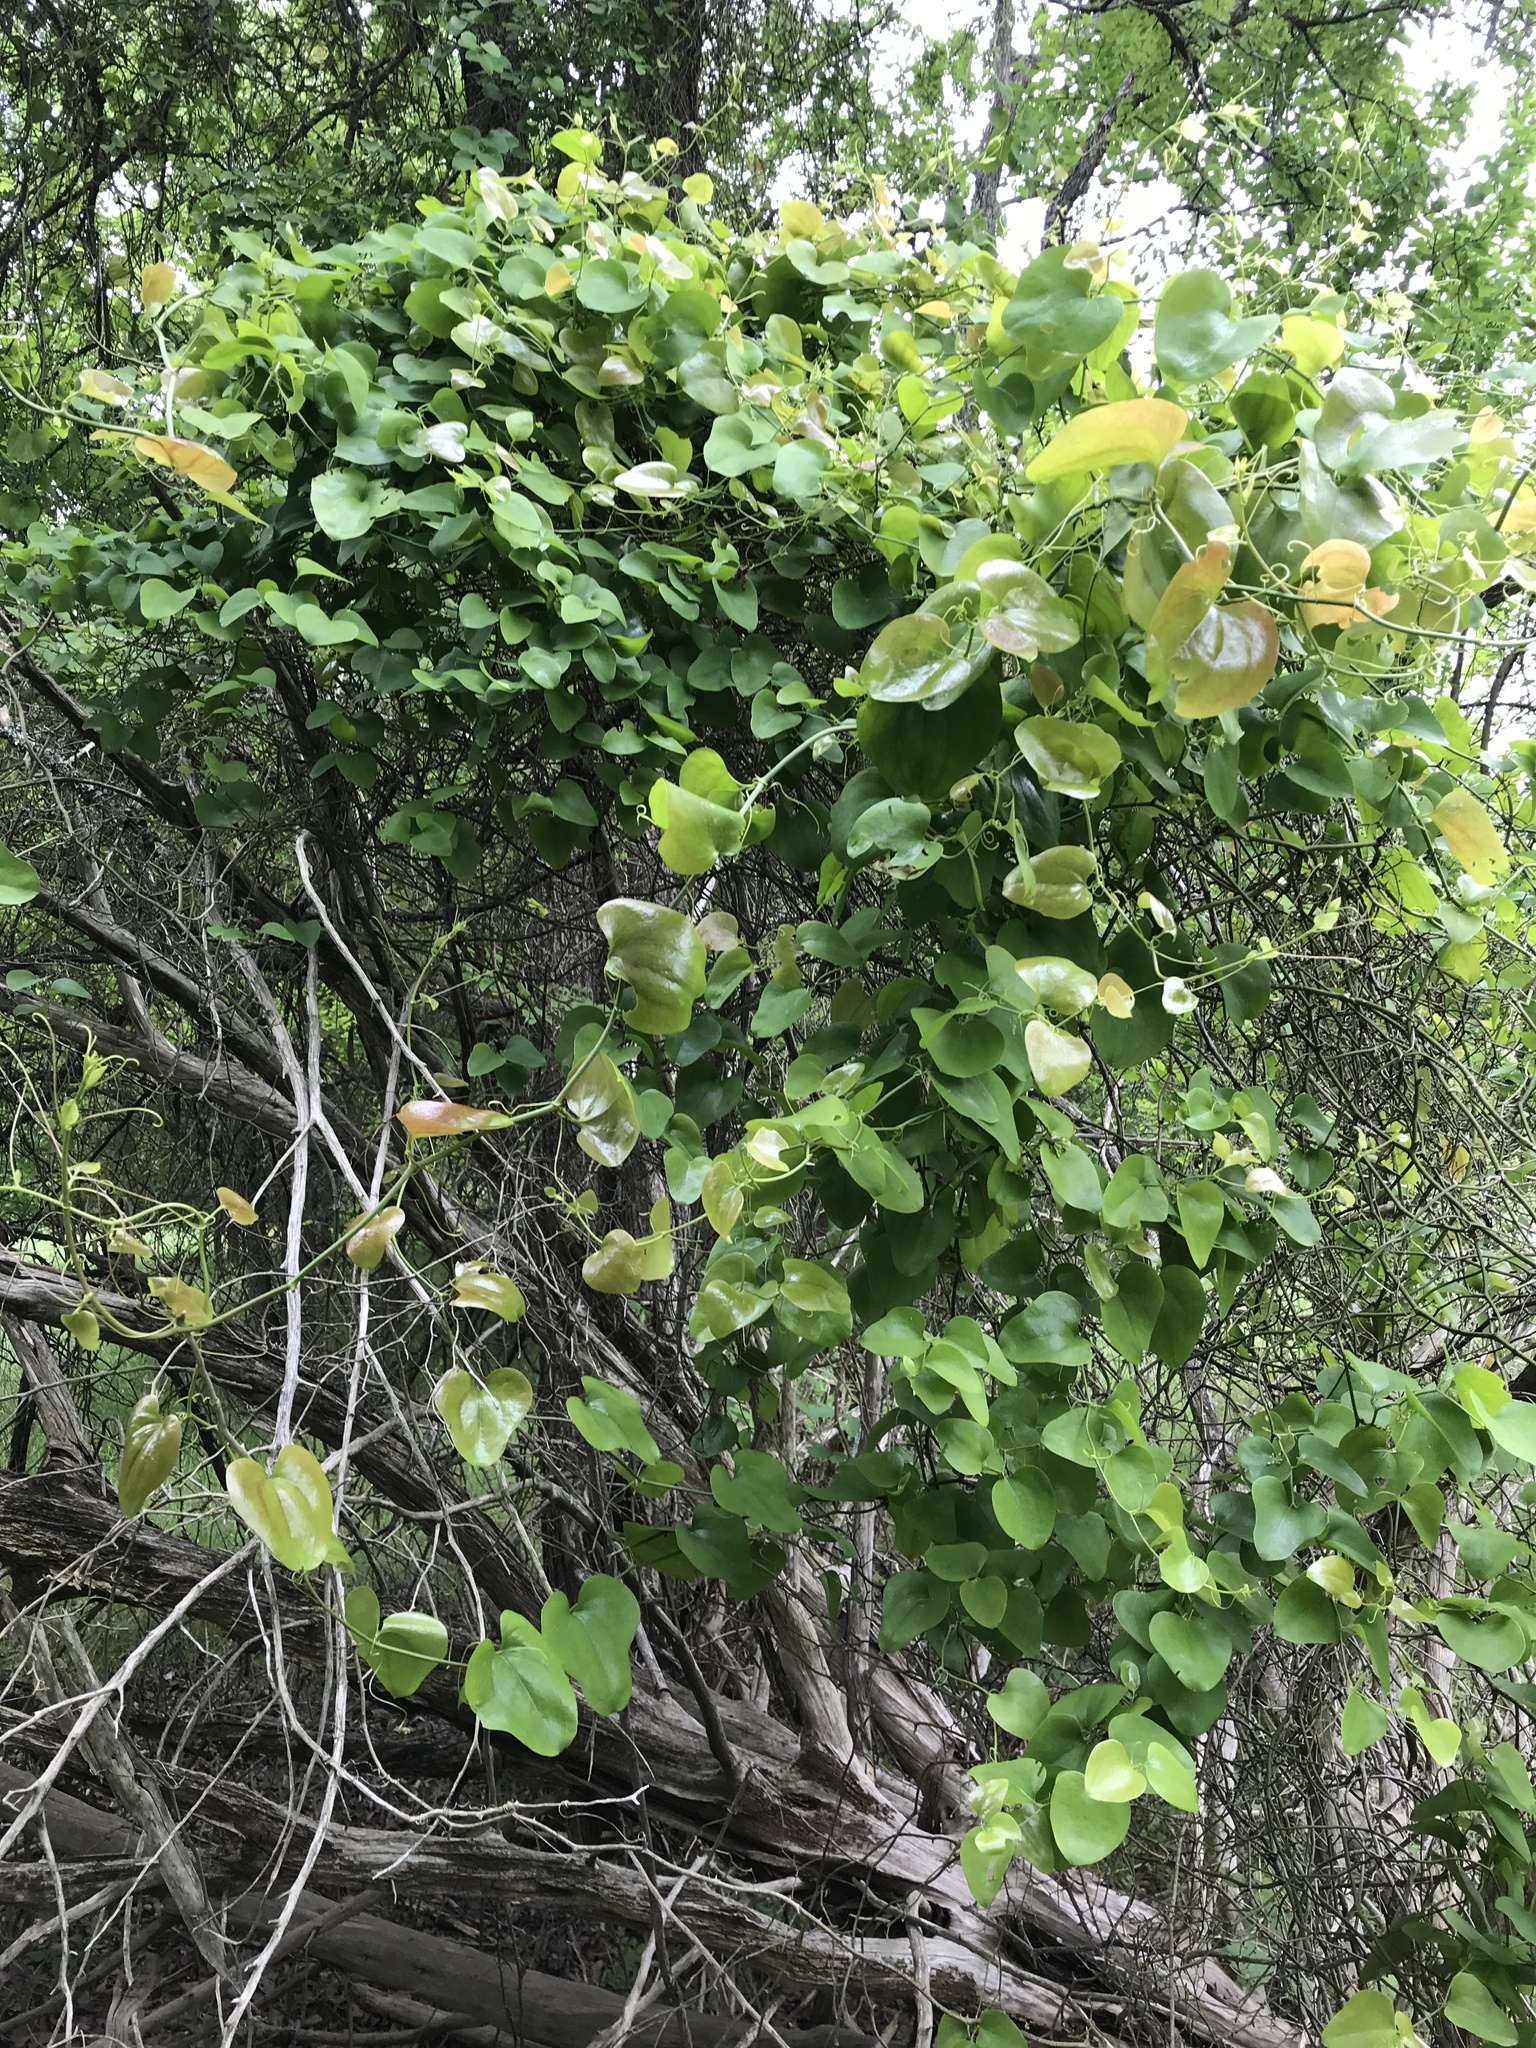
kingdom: Plantae
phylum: Tracheophyta
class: Liliopsida
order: Liliales
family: Smilacaceae
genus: Smilax
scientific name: Smilax bona-nox
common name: Catbrier
